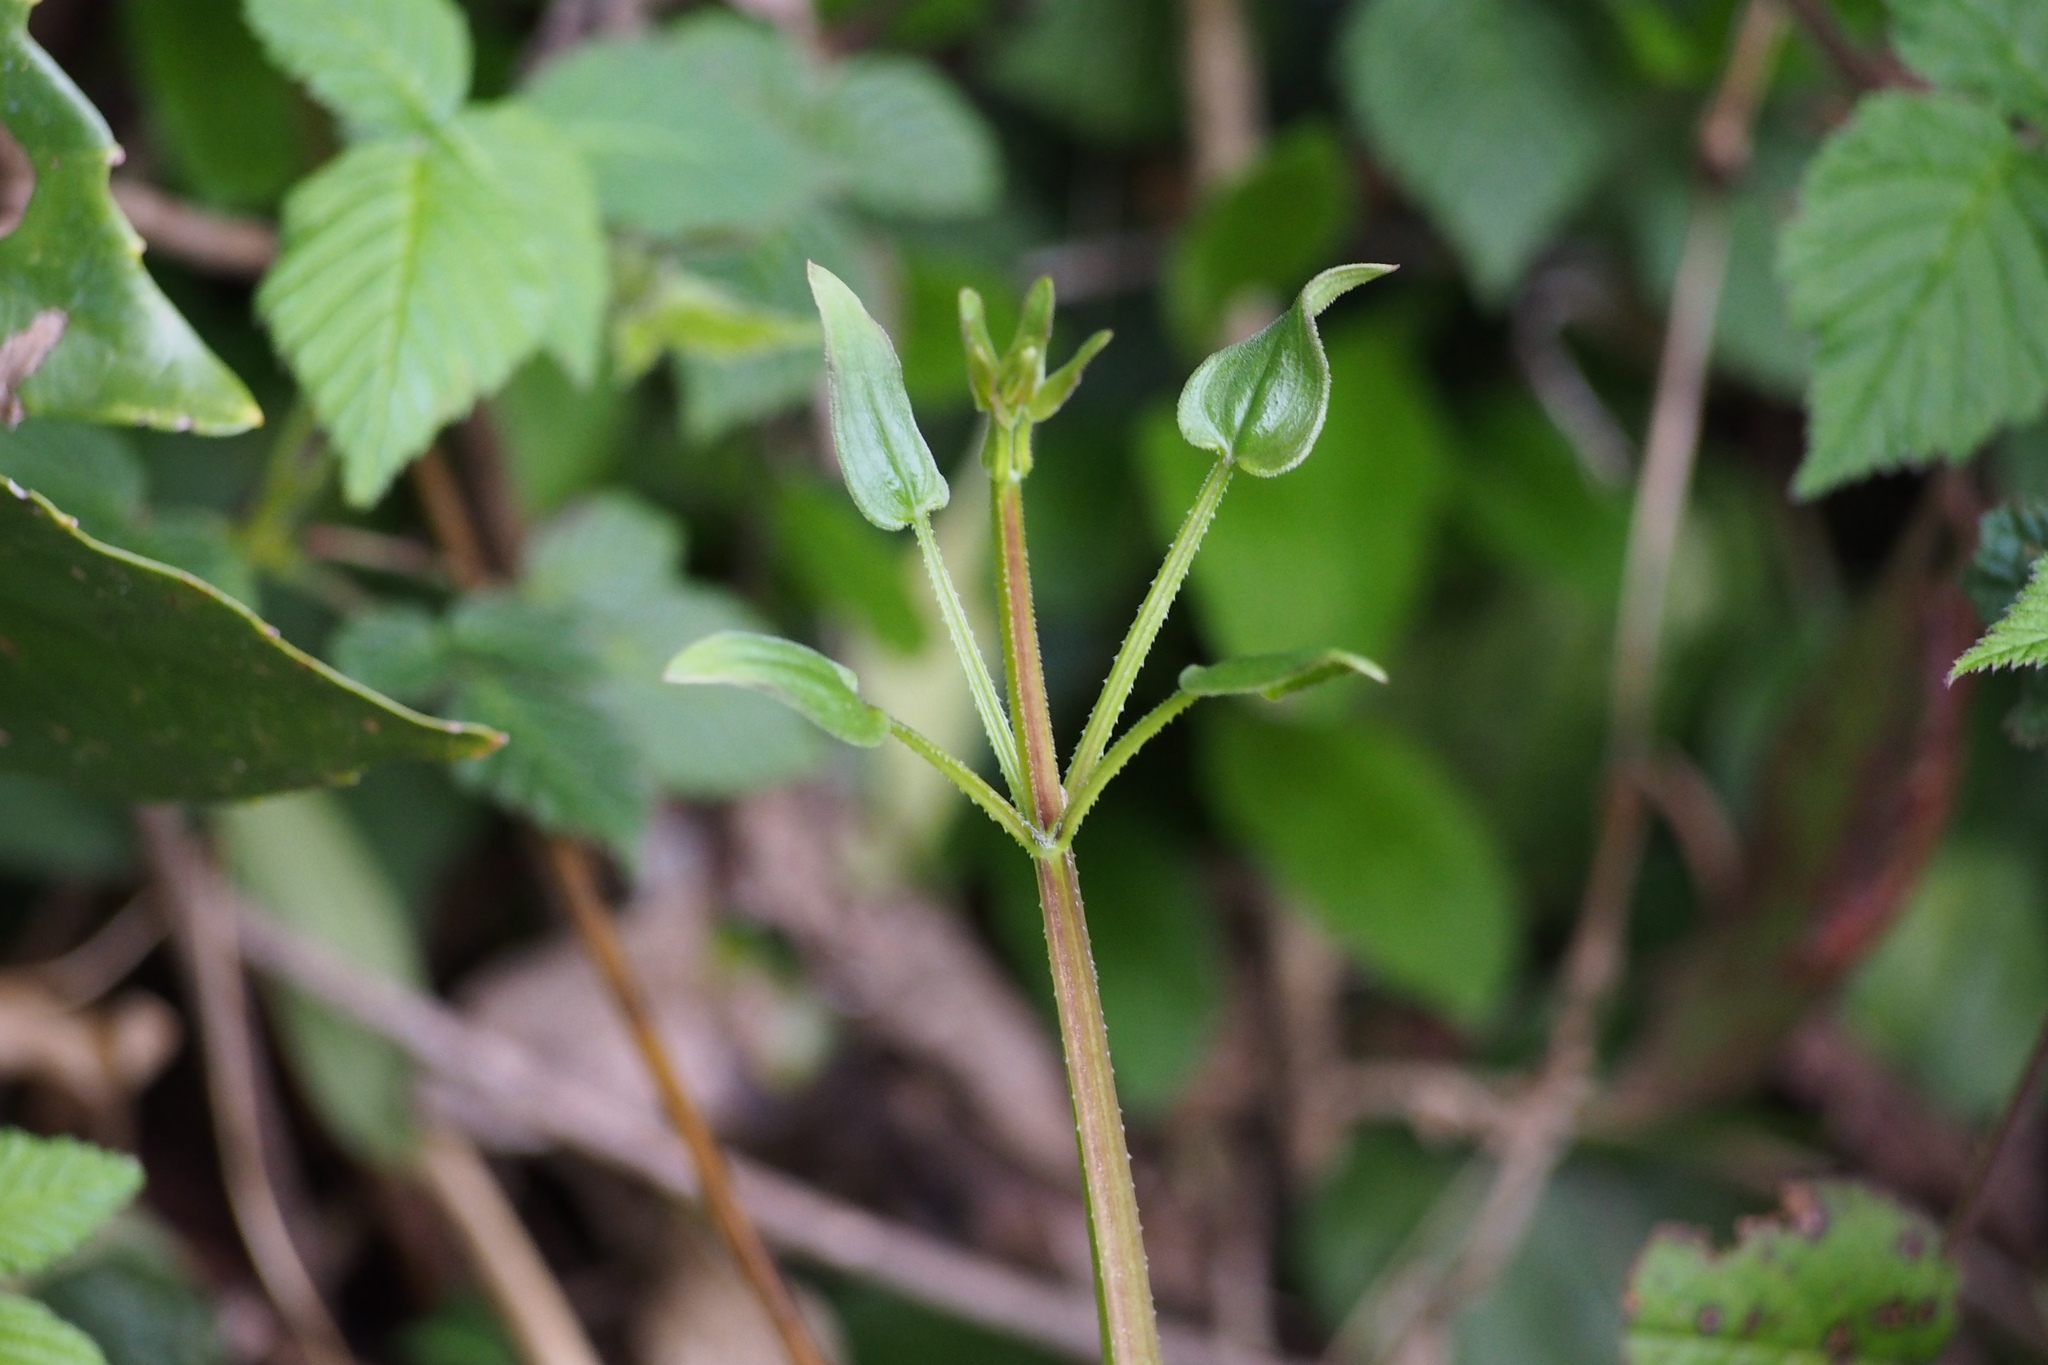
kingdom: Plantae
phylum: Tracheophyta
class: Magnoliopsida
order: Gentianales
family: Rubiaceae
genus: Rubia
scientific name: Rubia argyi
